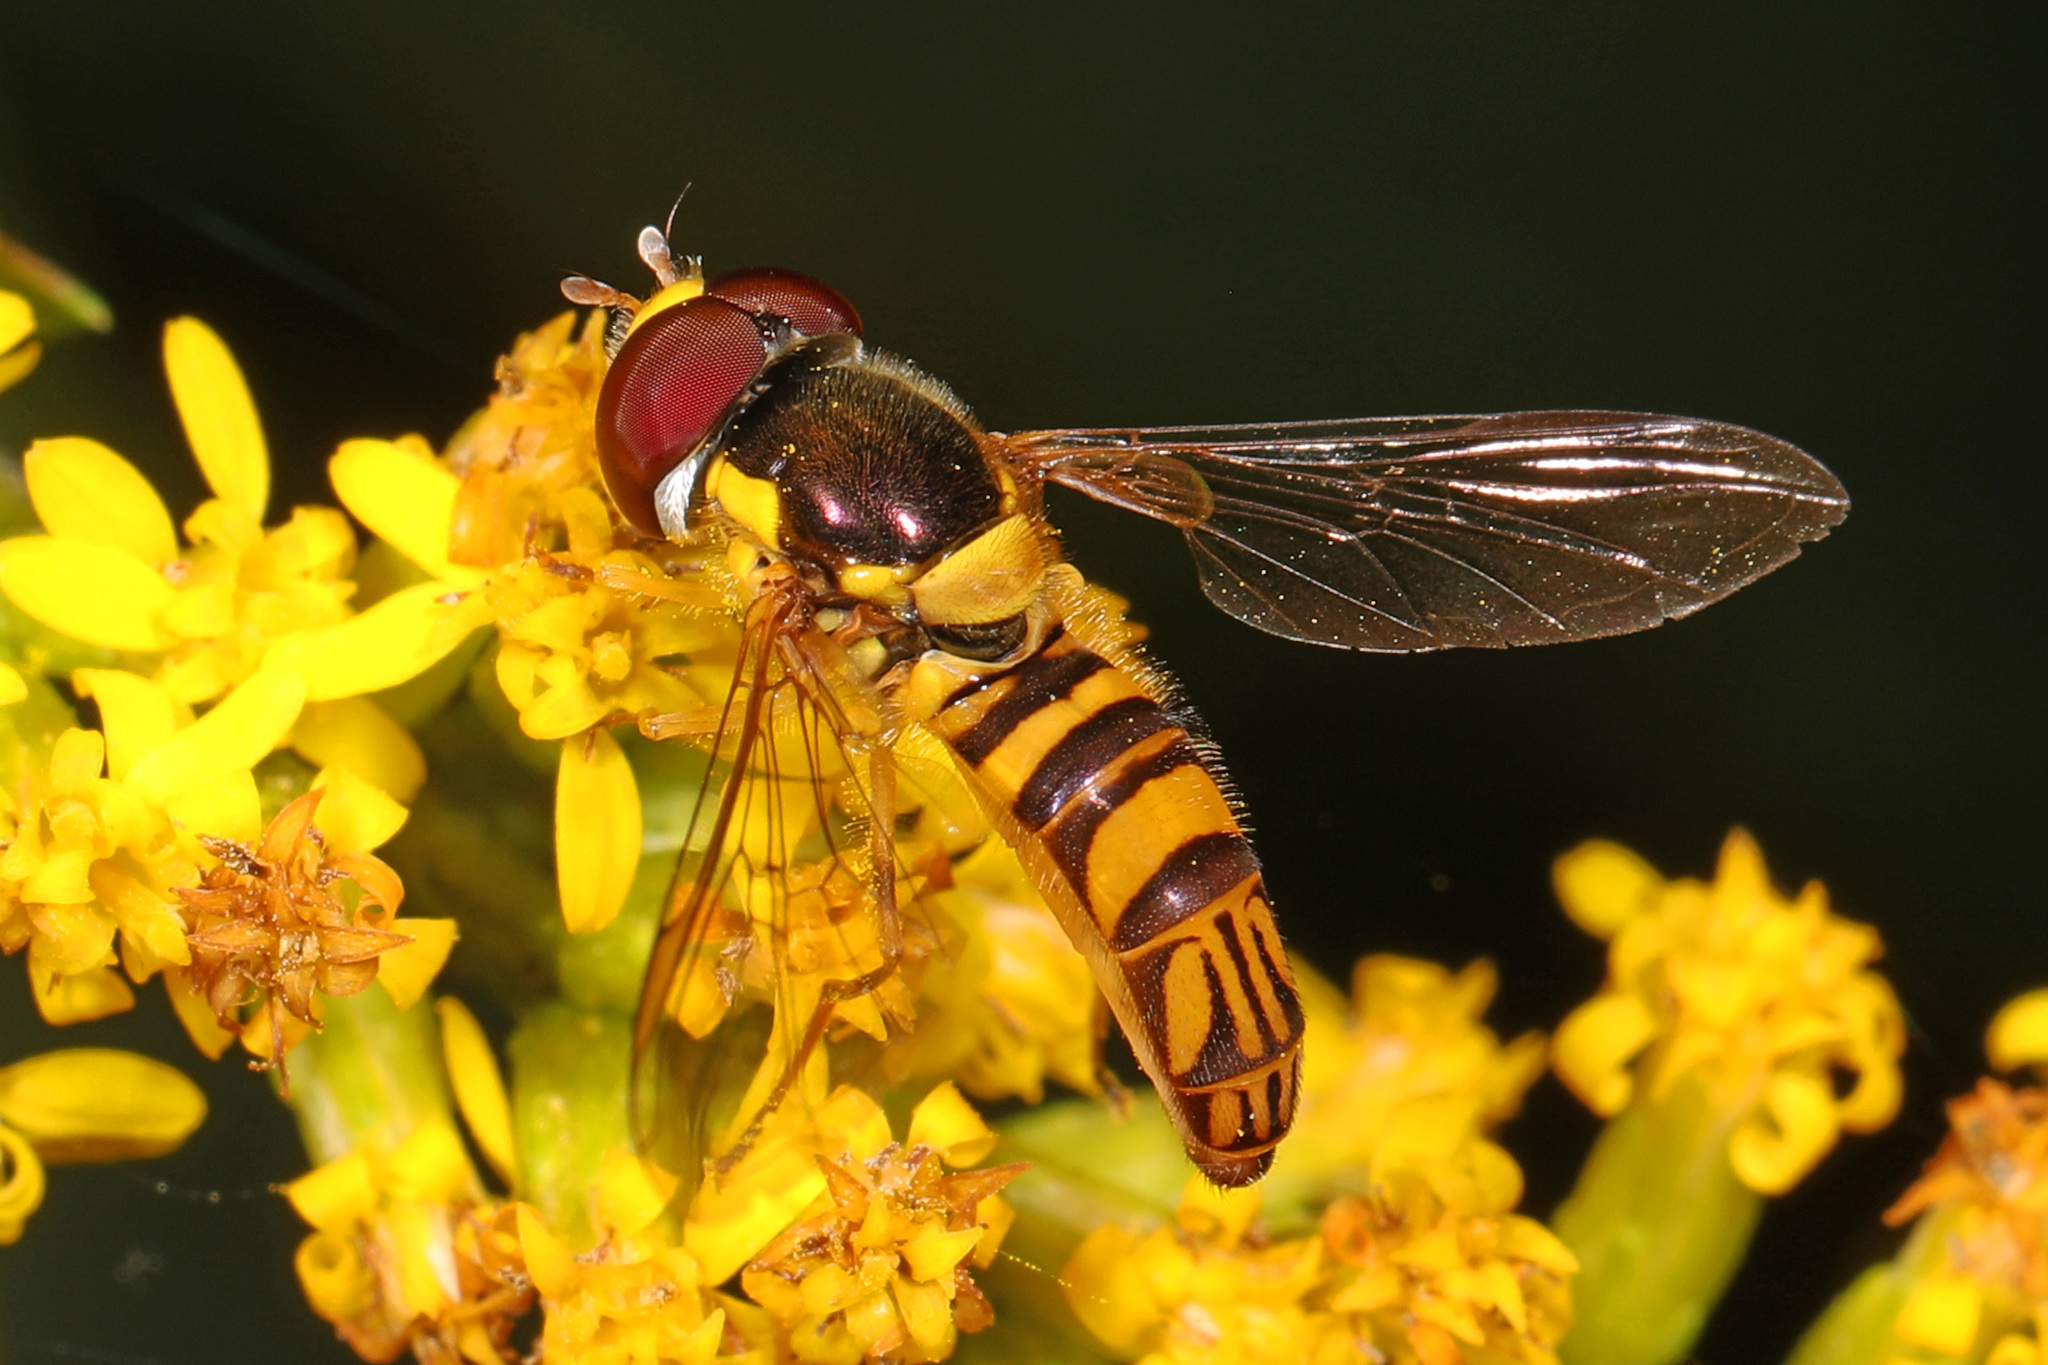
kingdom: Animalia
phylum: Arthropoda
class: Insecta
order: Diptera
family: Syrphidae
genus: Allograpta
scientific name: Allograpta obliqua
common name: Common oblique syrphid
